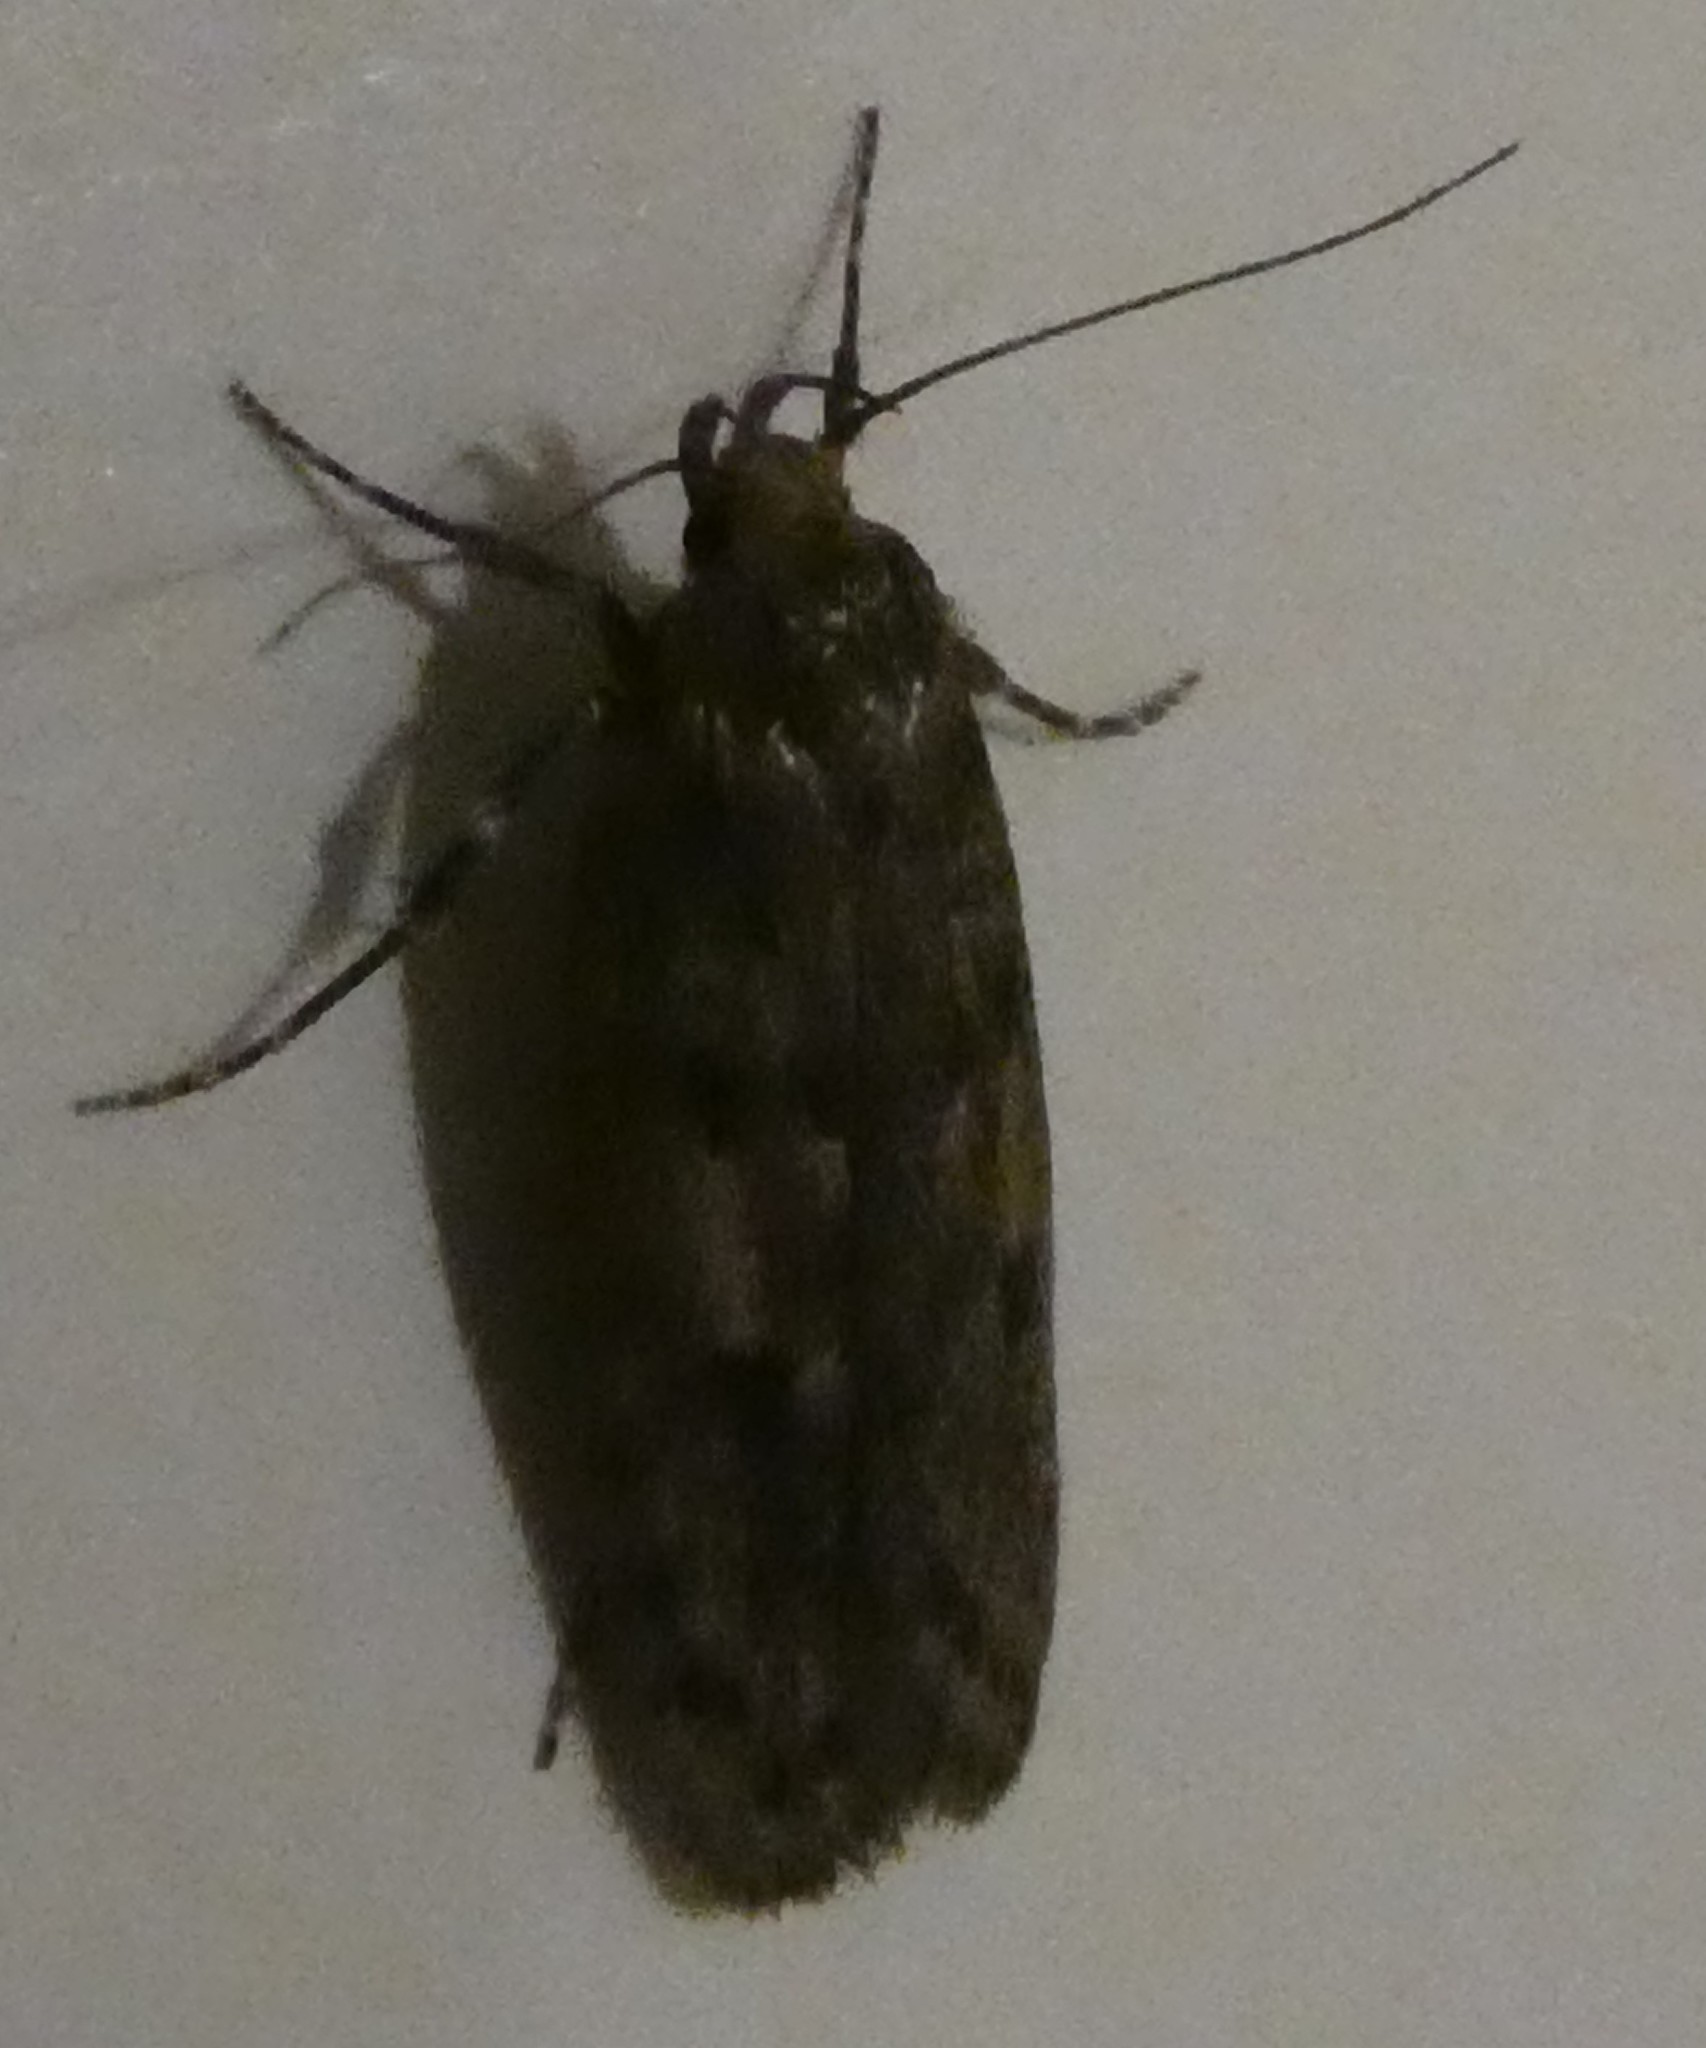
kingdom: Animalia
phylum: Arthropoda
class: Insecta
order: Lepidoptera
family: Oecophoridae
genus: Hofmannophila
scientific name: Hofmannophila pseudospretella
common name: Brown house moth
